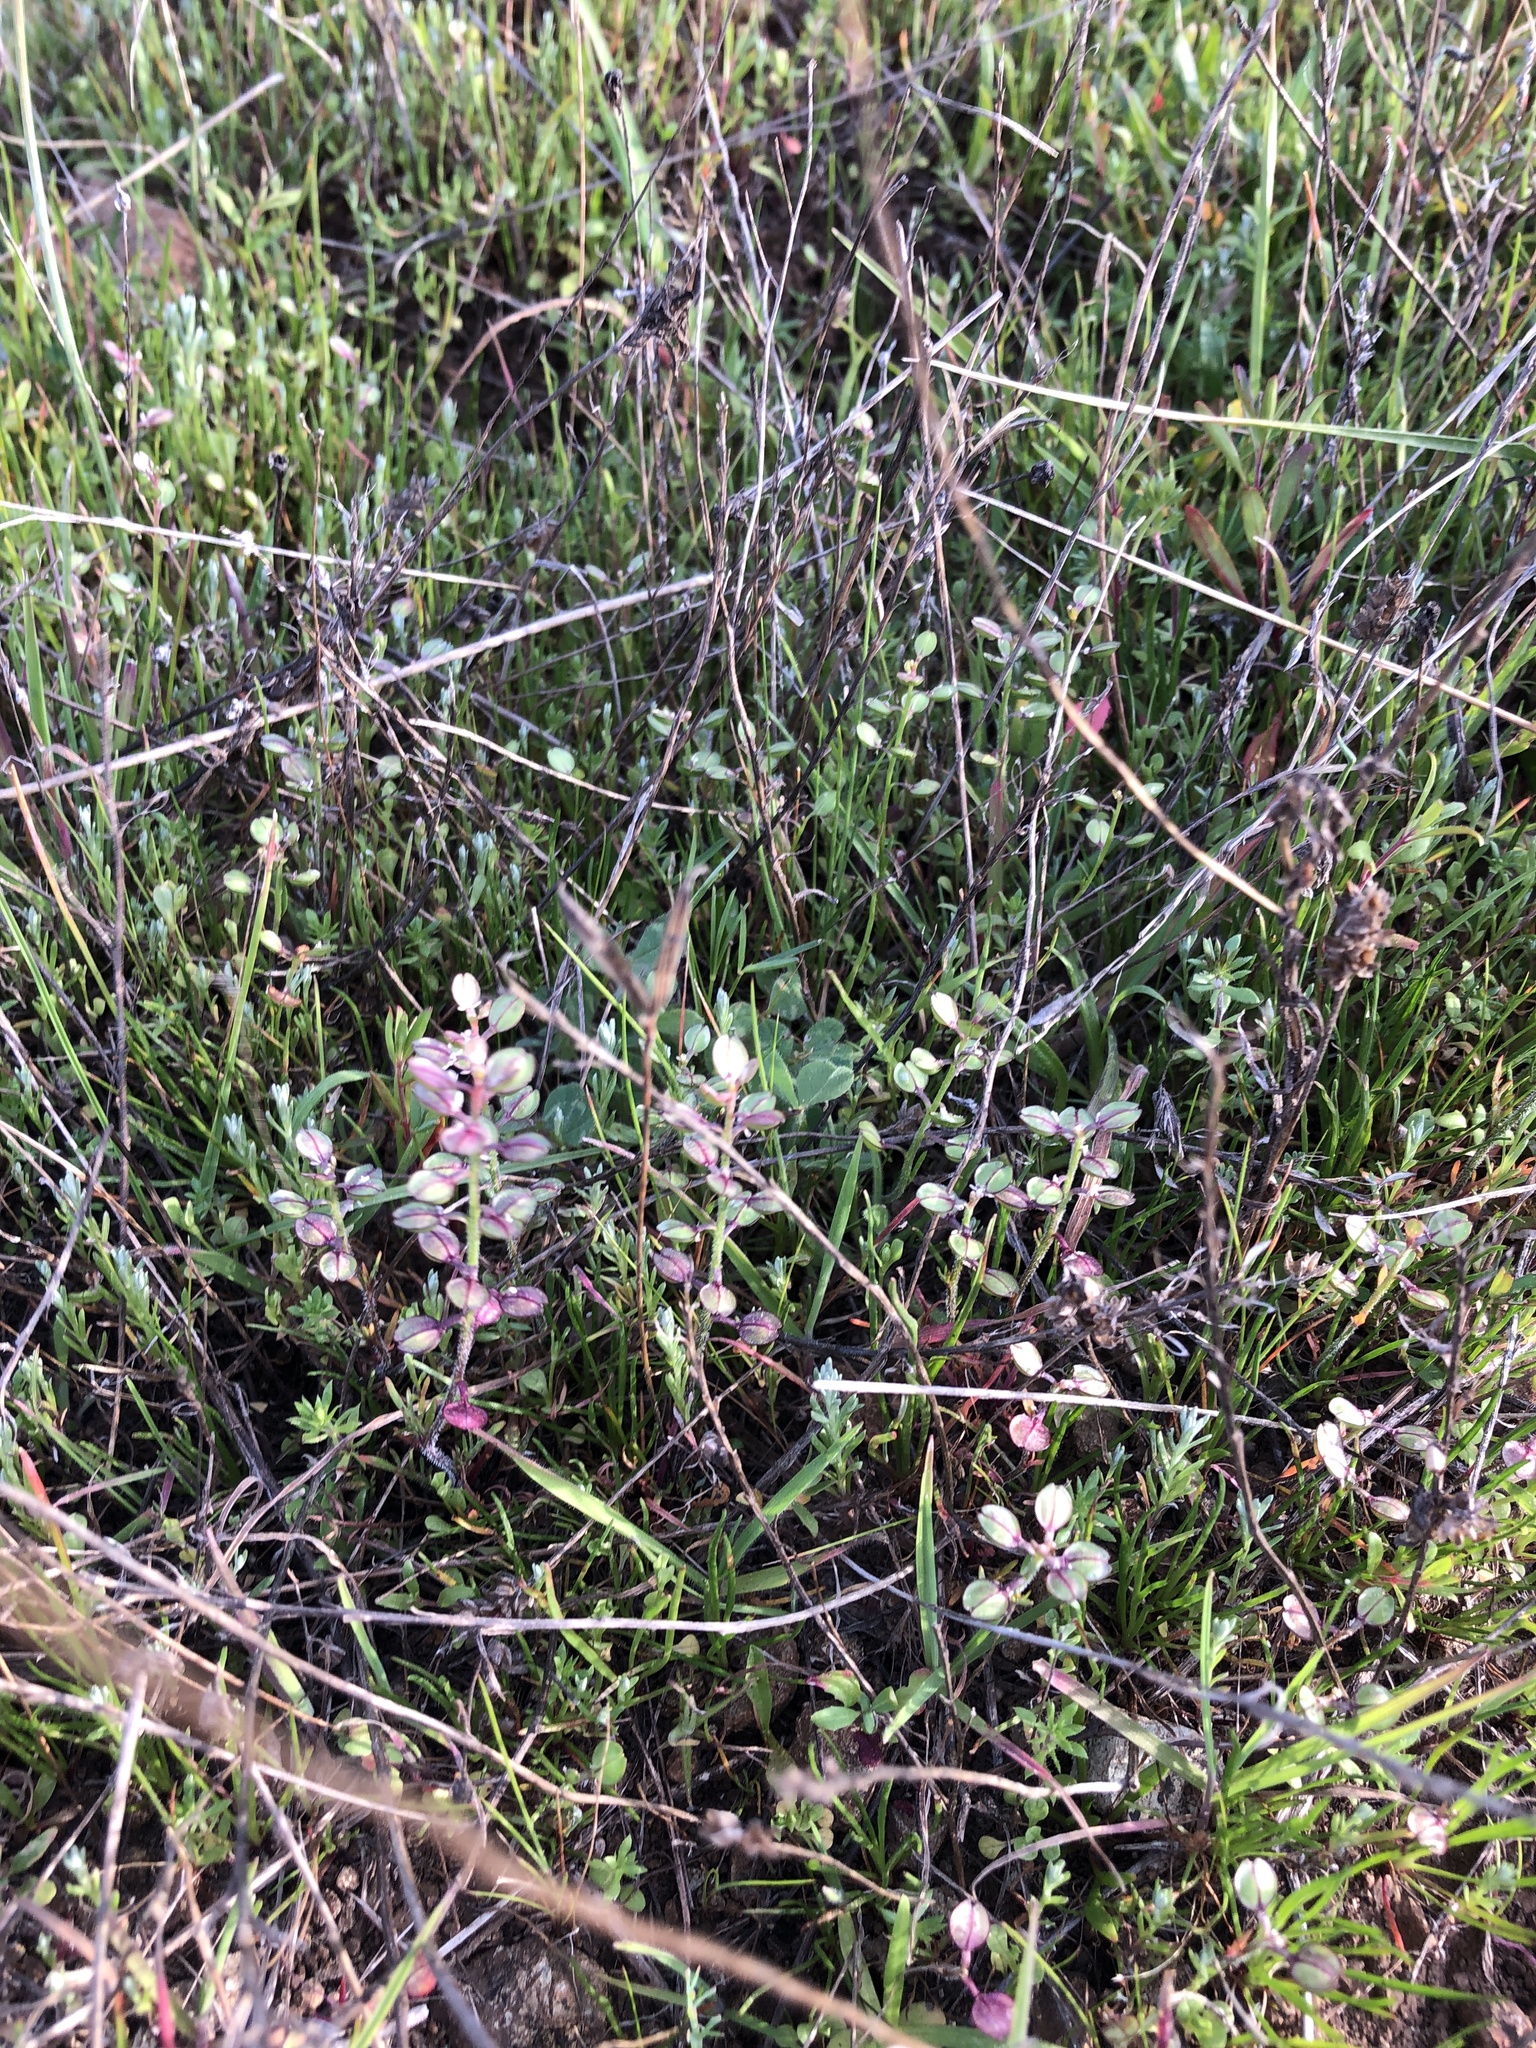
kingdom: Plantae
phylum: Tracheophyta
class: Magnoliopsida
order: Brassicales
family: Brassicaceae
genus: Lepidium
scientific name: Lepidium nitidum
